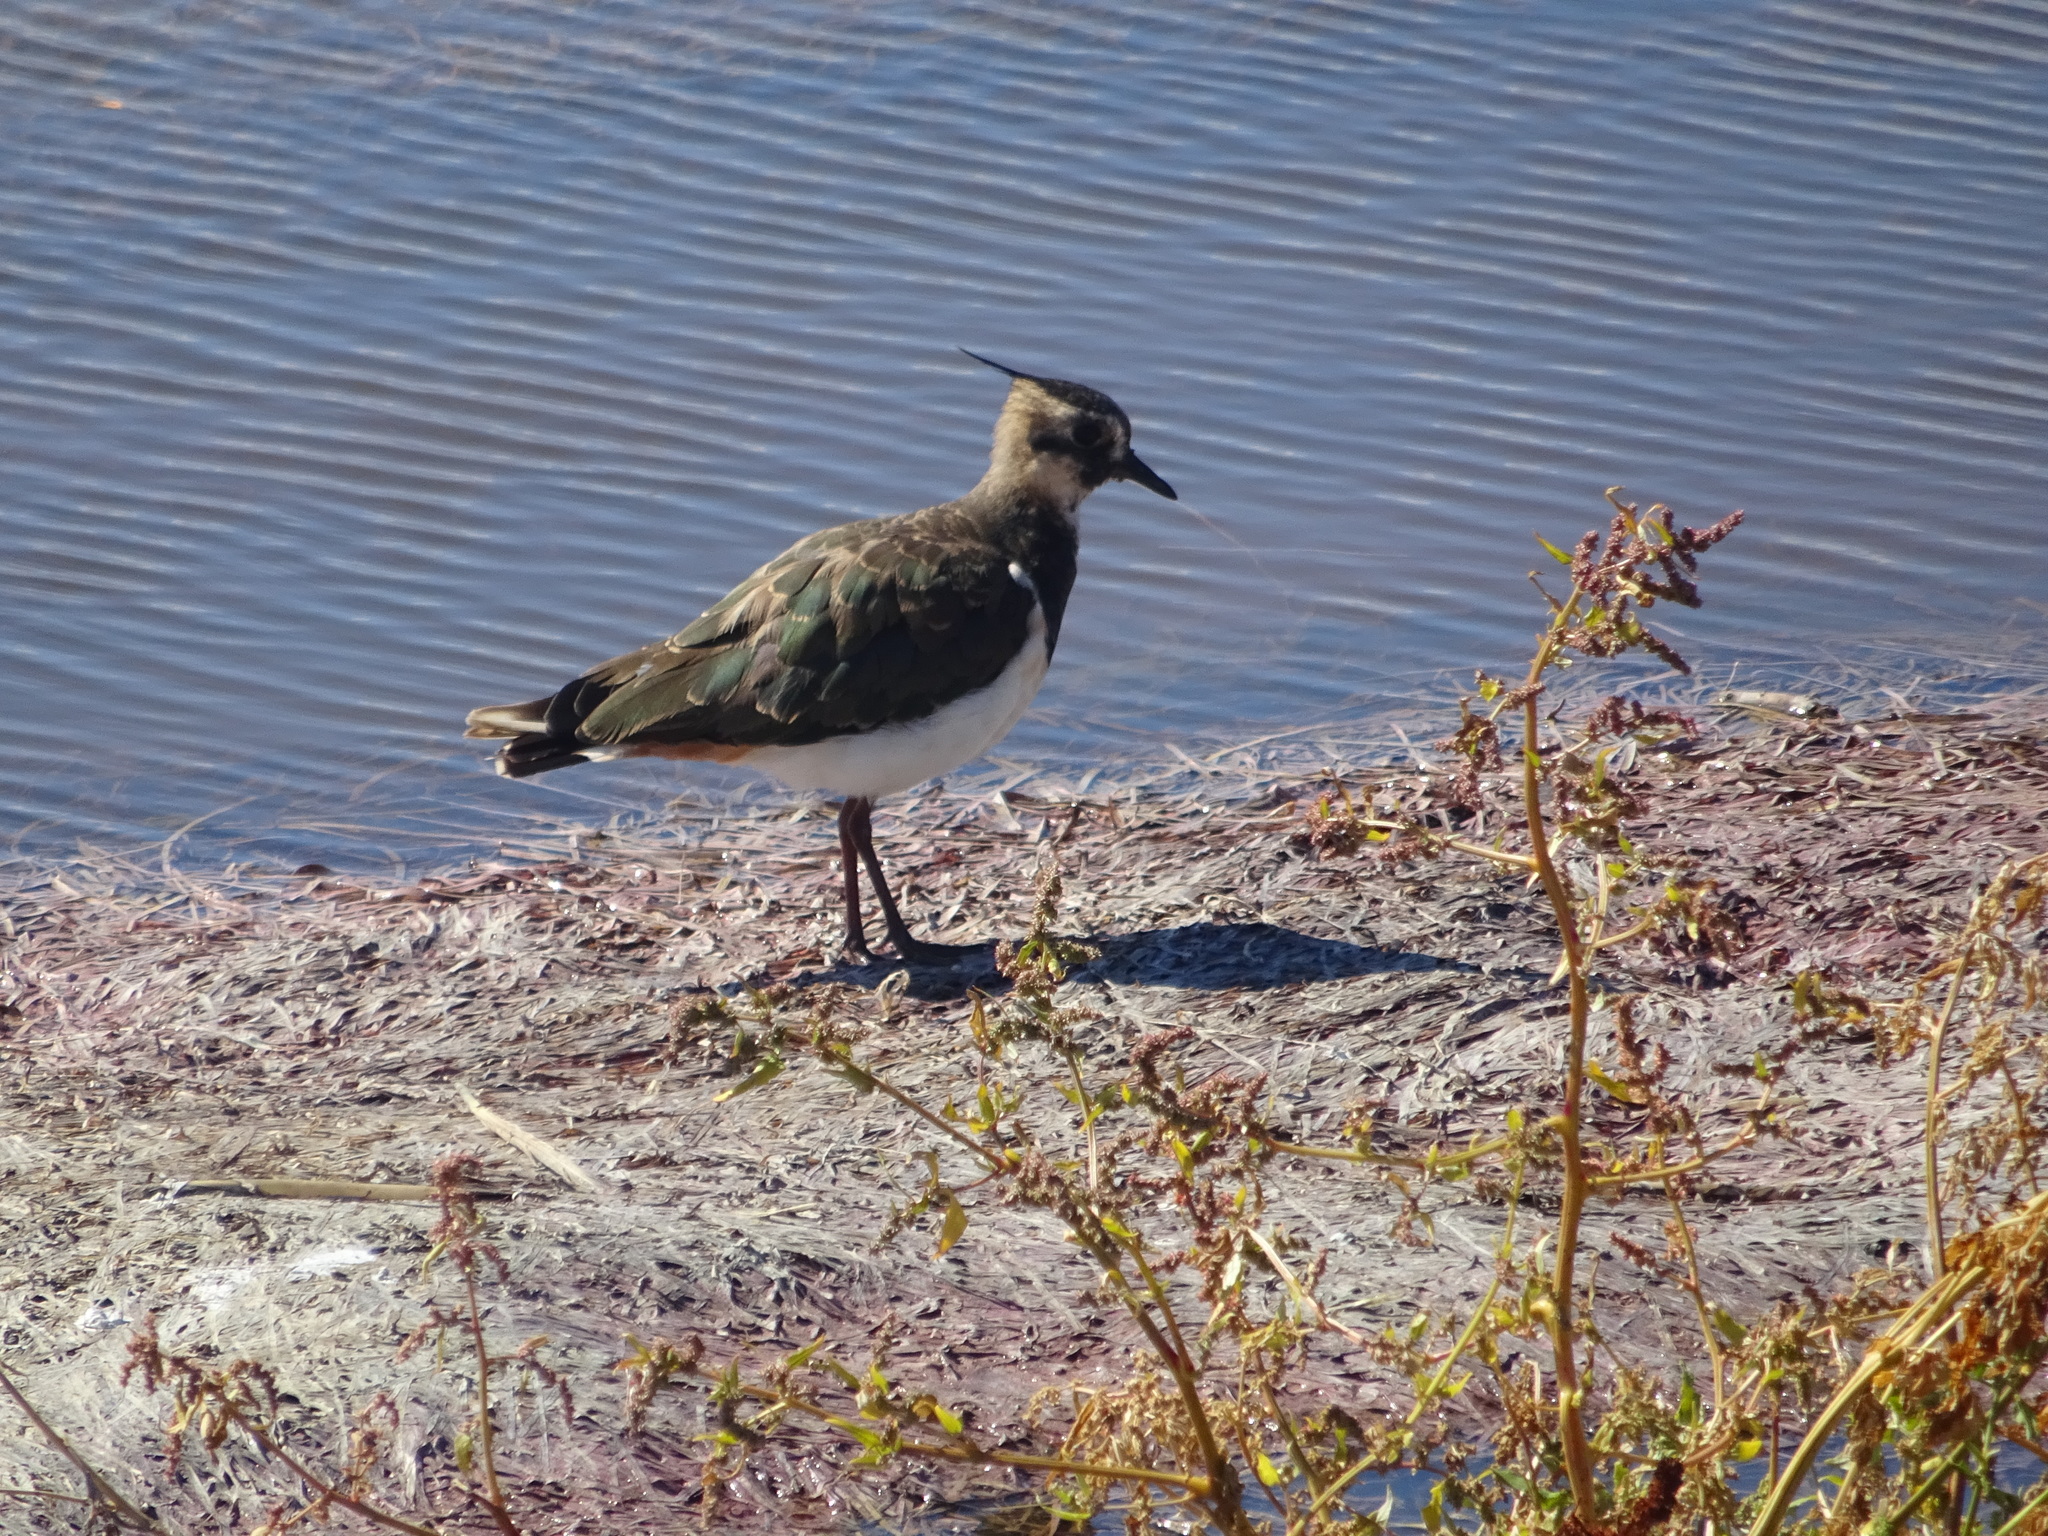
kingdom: Animalia
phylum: Chordata
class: Aves
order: Charadriiformes
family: Charadriidae
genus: Vanellus
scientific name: Vanellus vanellus
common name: Northern lapwing
